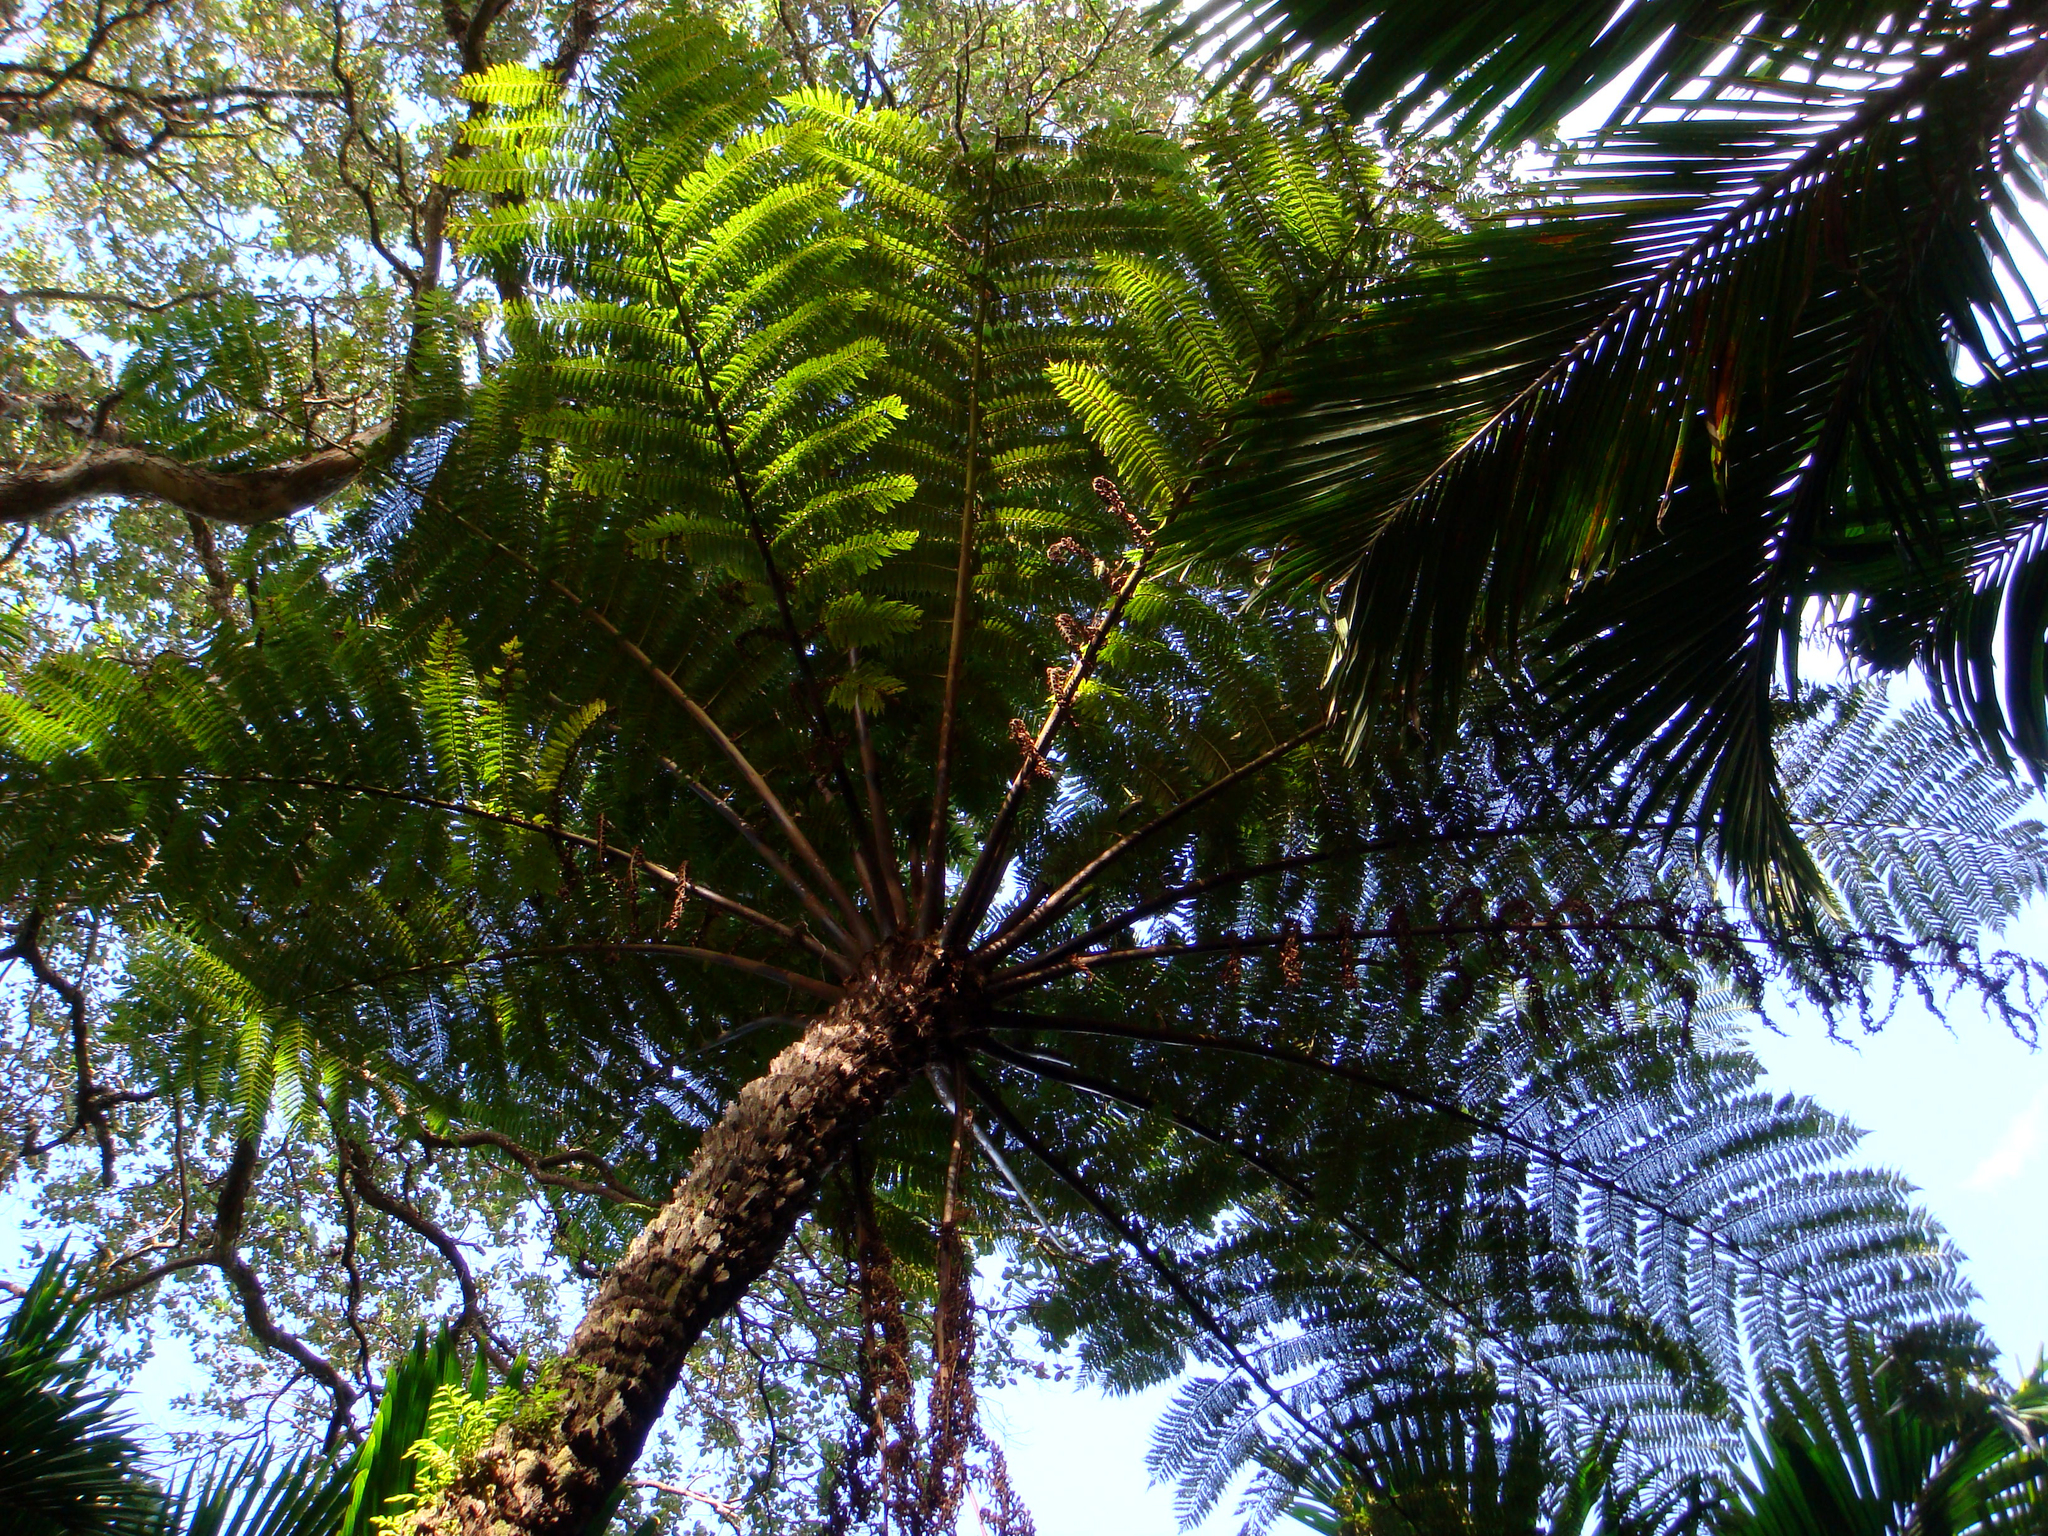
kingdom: Plantae
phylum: Tracheophyta
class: Polypodiopsida
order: Cyatheales
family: Cyatheaceae
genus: Alsophila
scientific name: Alsophila kermadecensis
